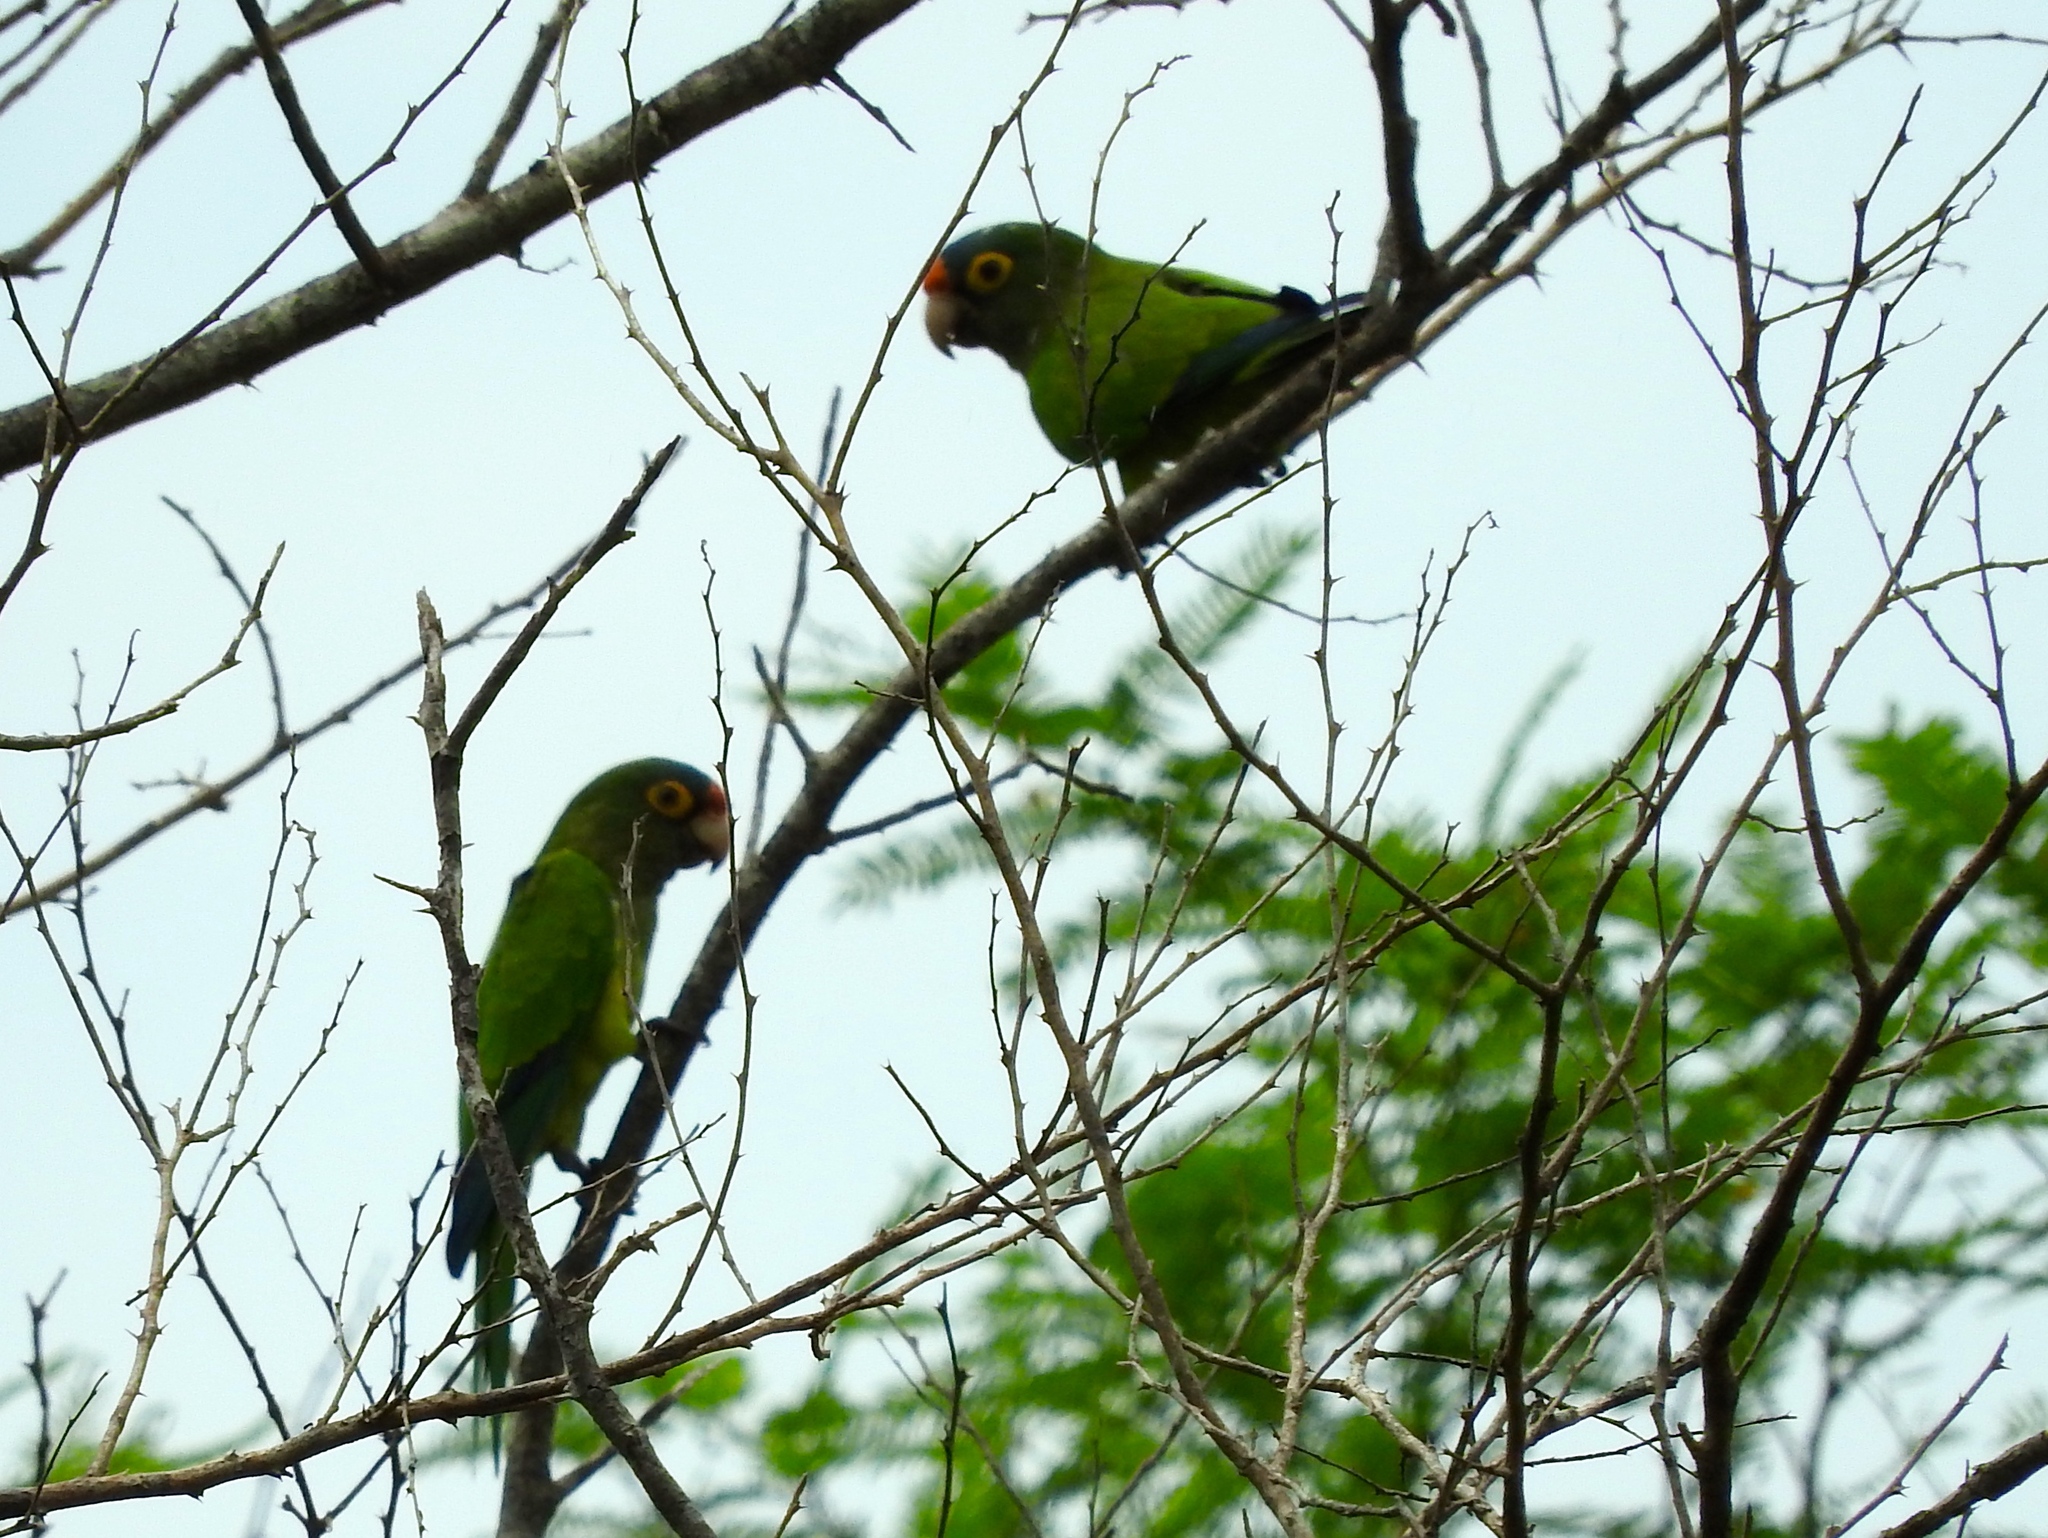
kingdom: Animalia
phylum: Chordata
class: Aves
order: Psittaciformes
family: Psittacidae
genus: Aratinga
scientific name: Aratinga canicularis
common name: Orange-fronted parakeet
